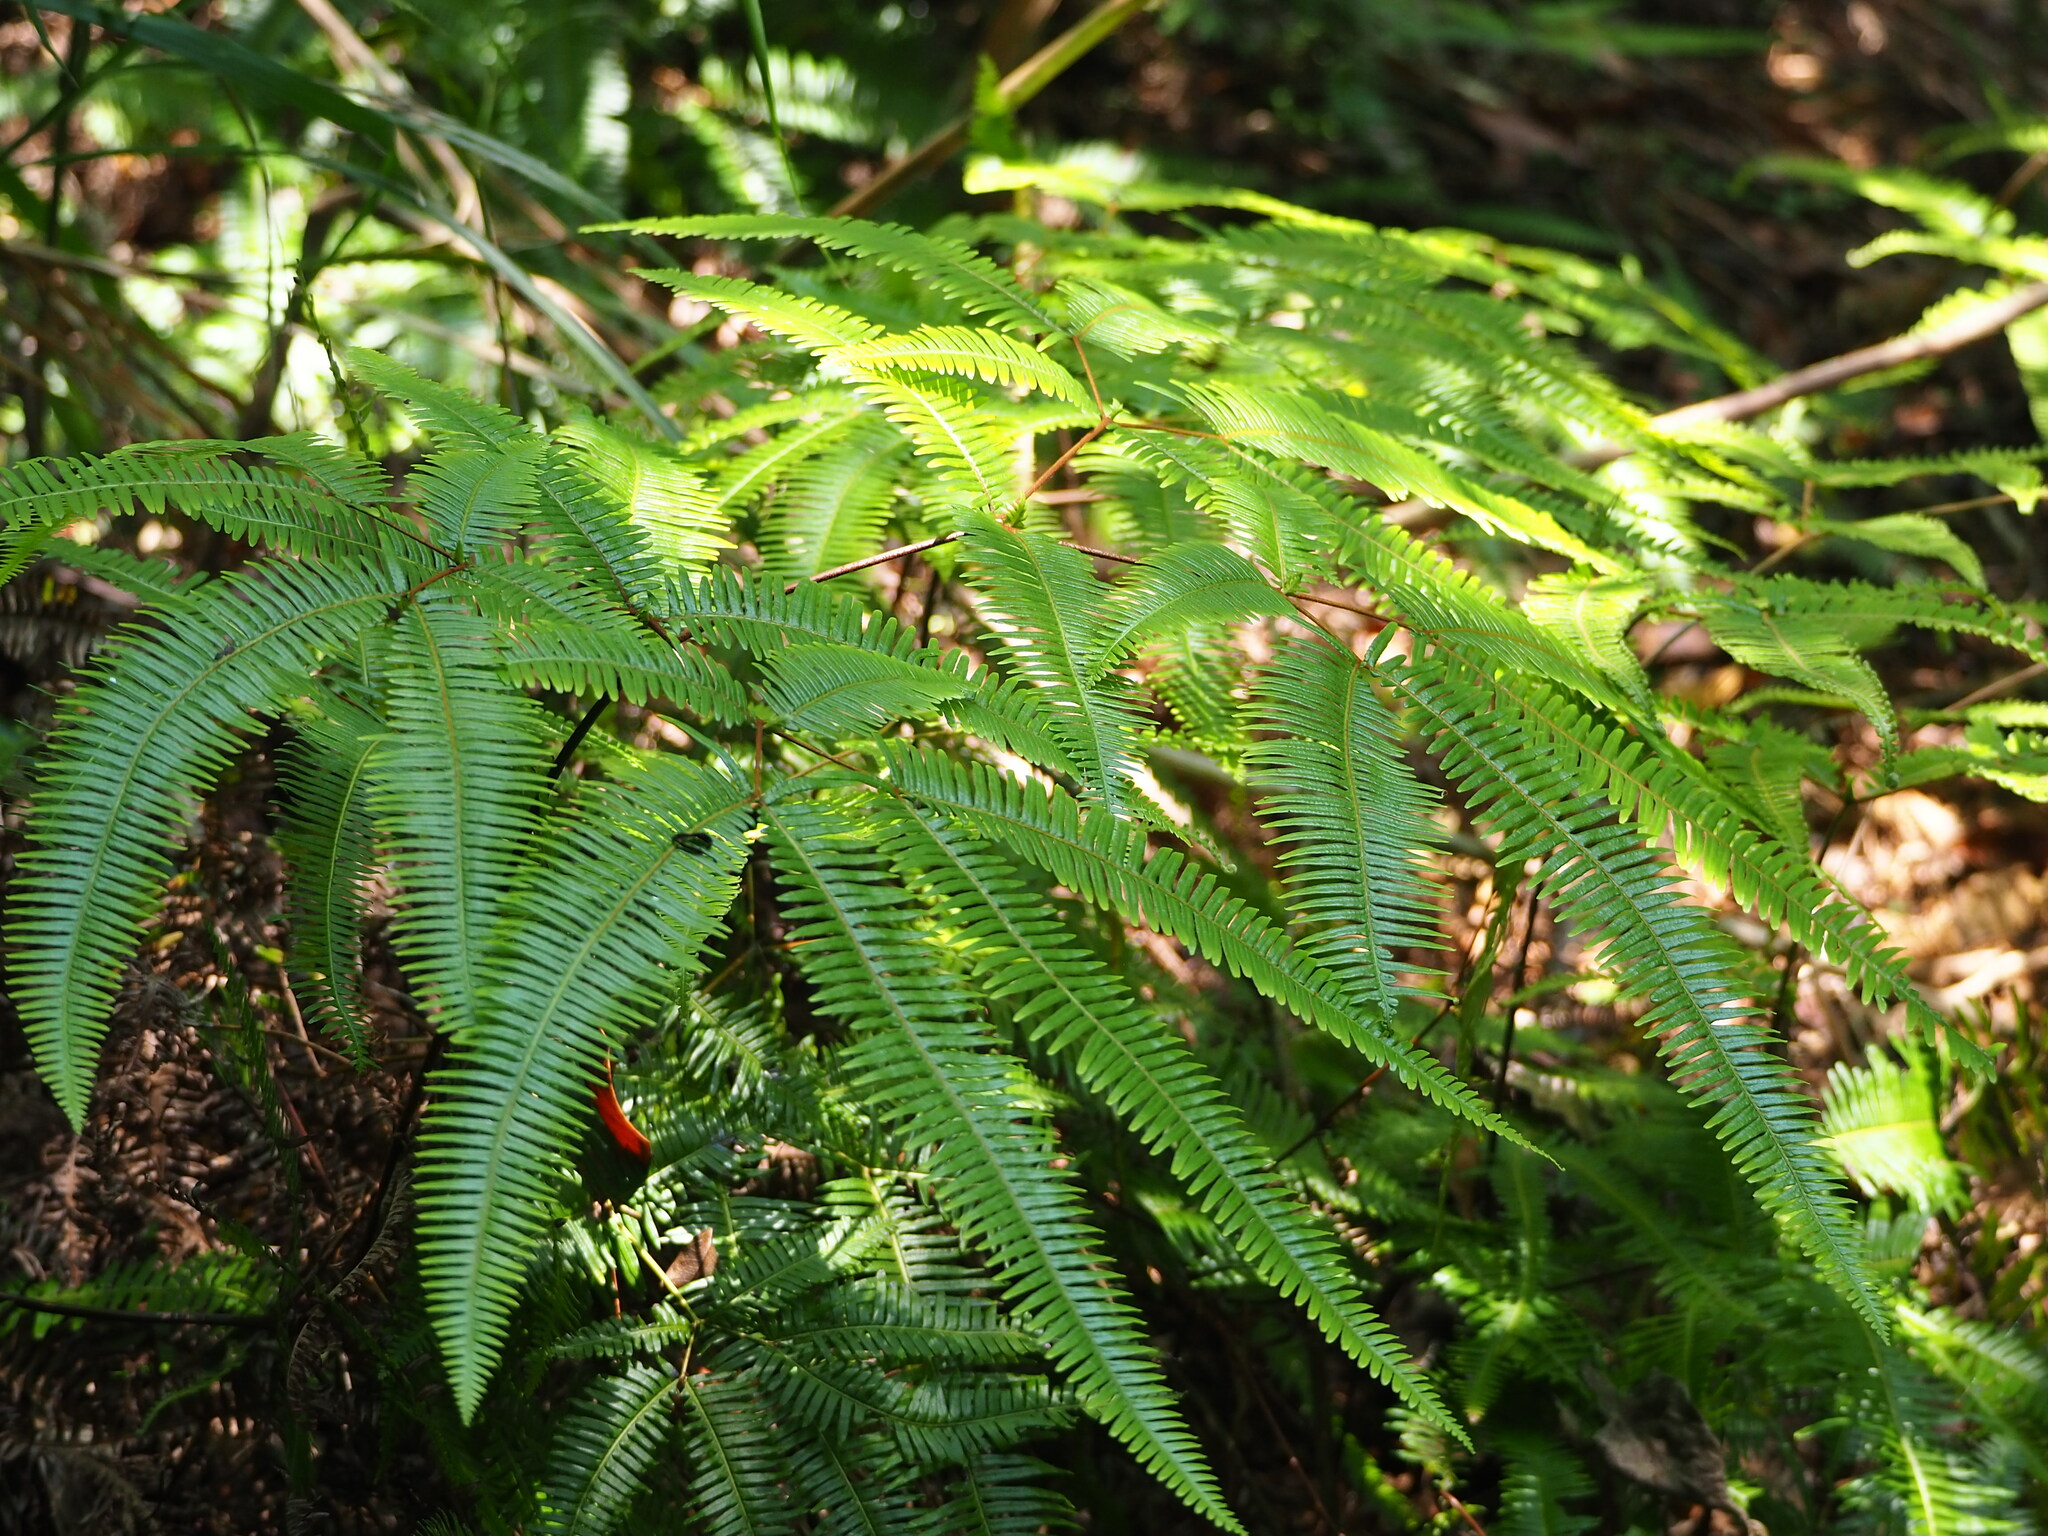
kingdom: Plantae
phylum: Tracheophyta
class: Polypodiopsida
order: Gleicheniales
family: Gleicheniaceae
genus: Dicranopteris
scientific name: Dicranopteris linearis
